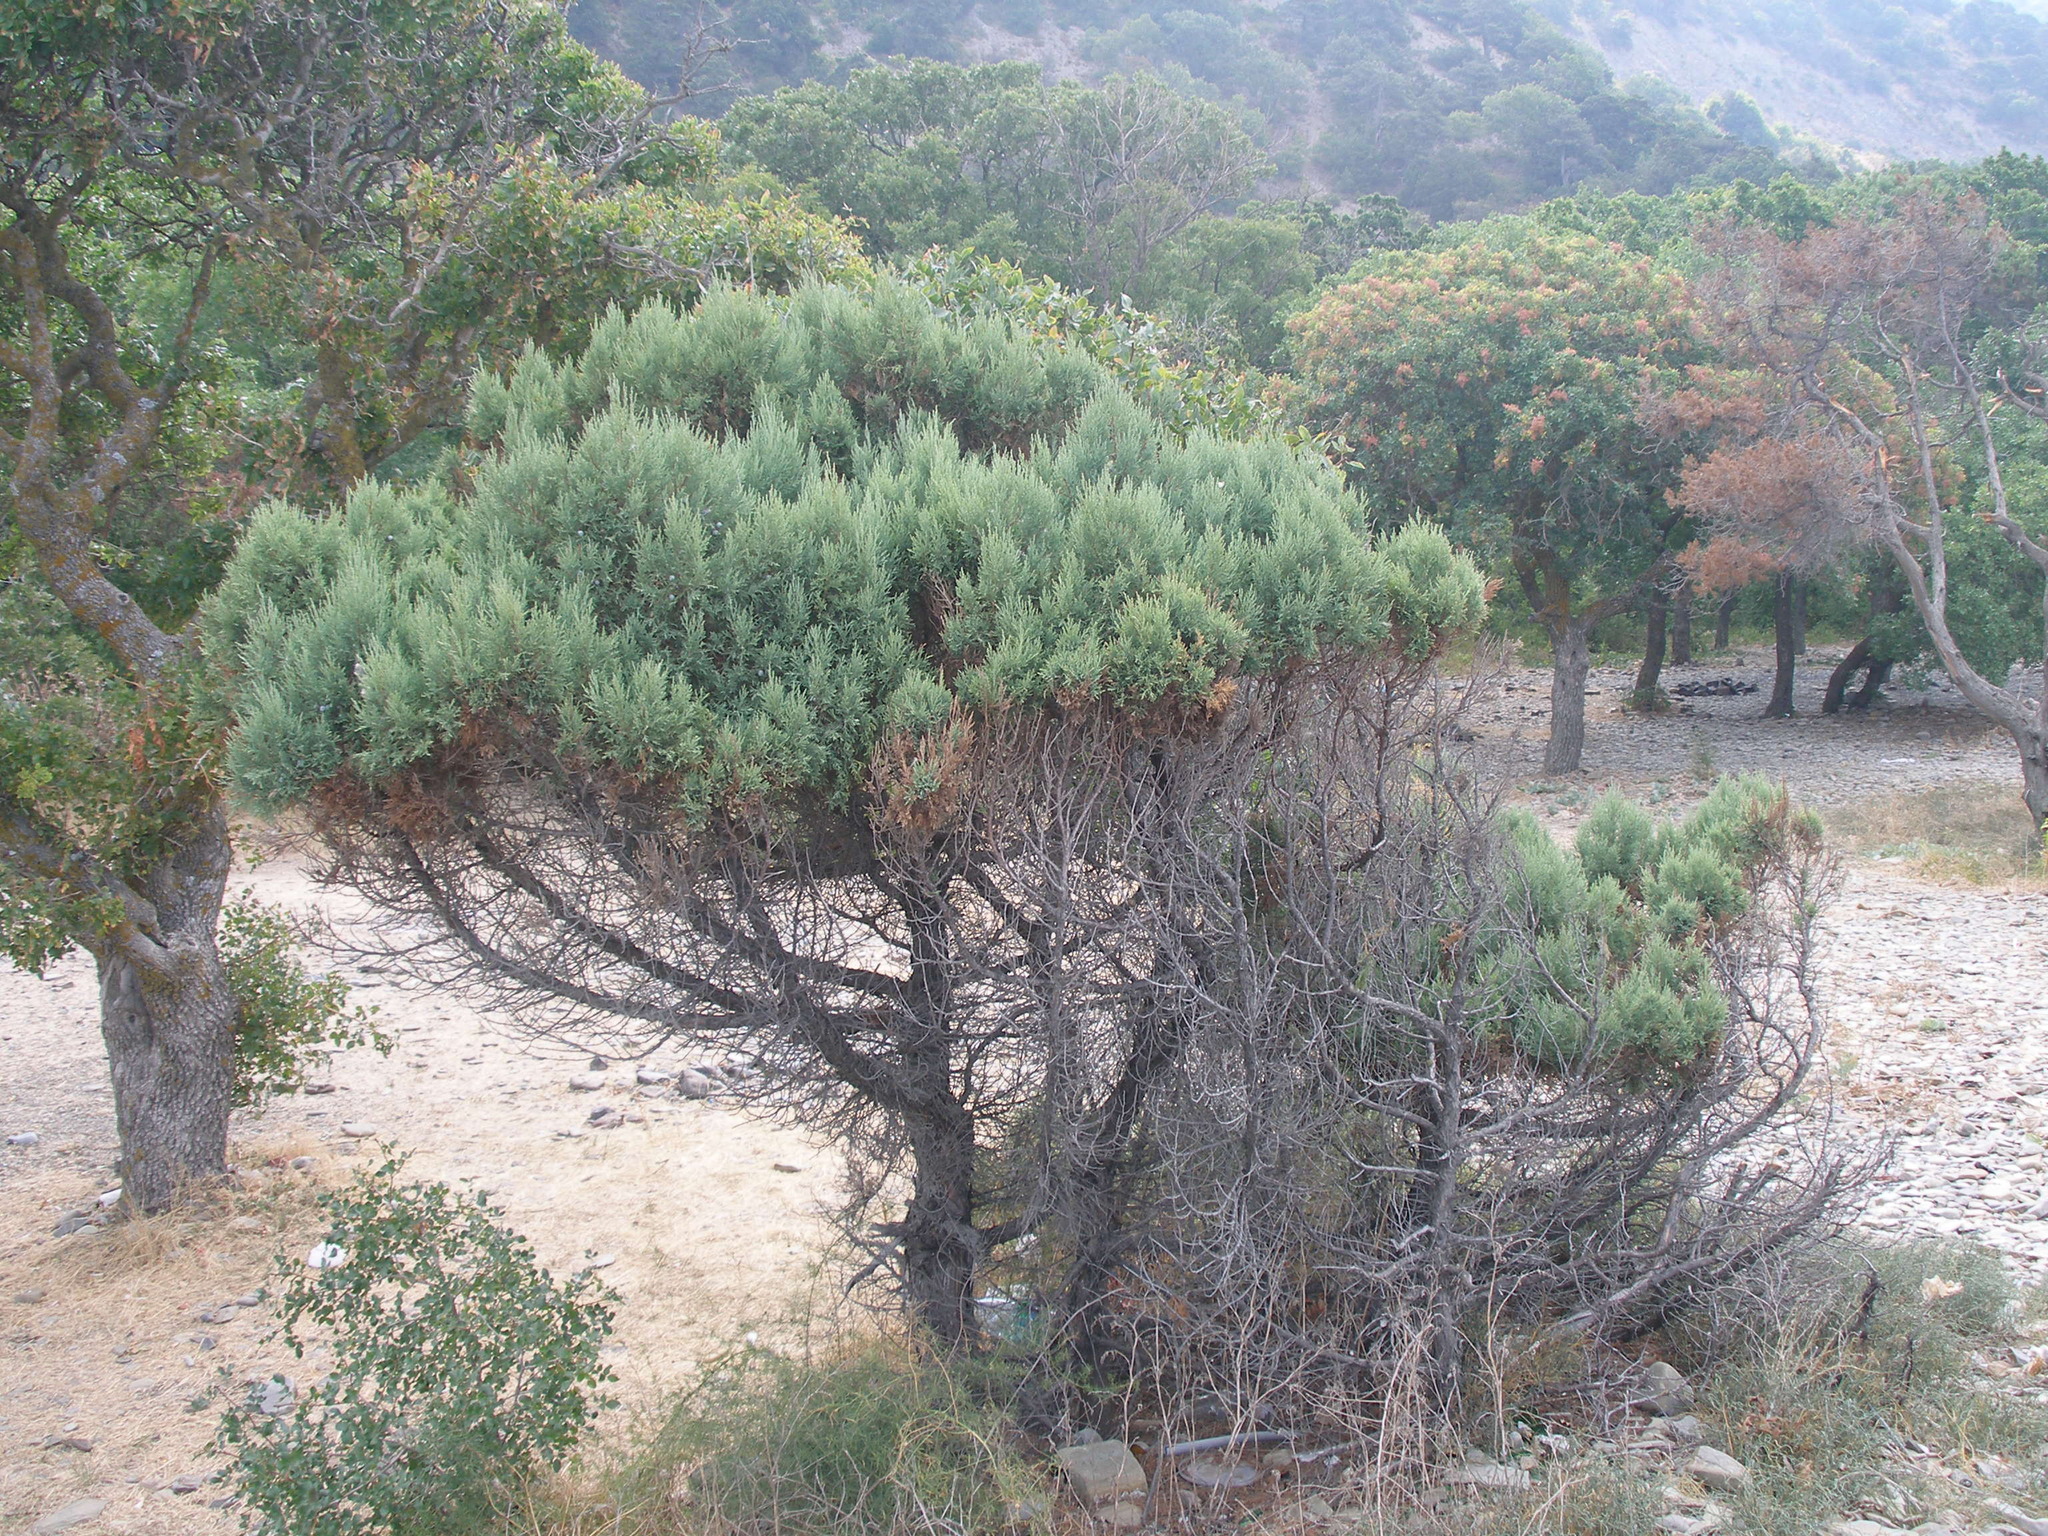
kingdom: Plantae
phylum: Tracheophyta
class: Pinopsida
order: Pinales
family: Cupressaceae
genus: Juniperus
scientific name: Juniperus excelsa
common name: Crimean juniper
